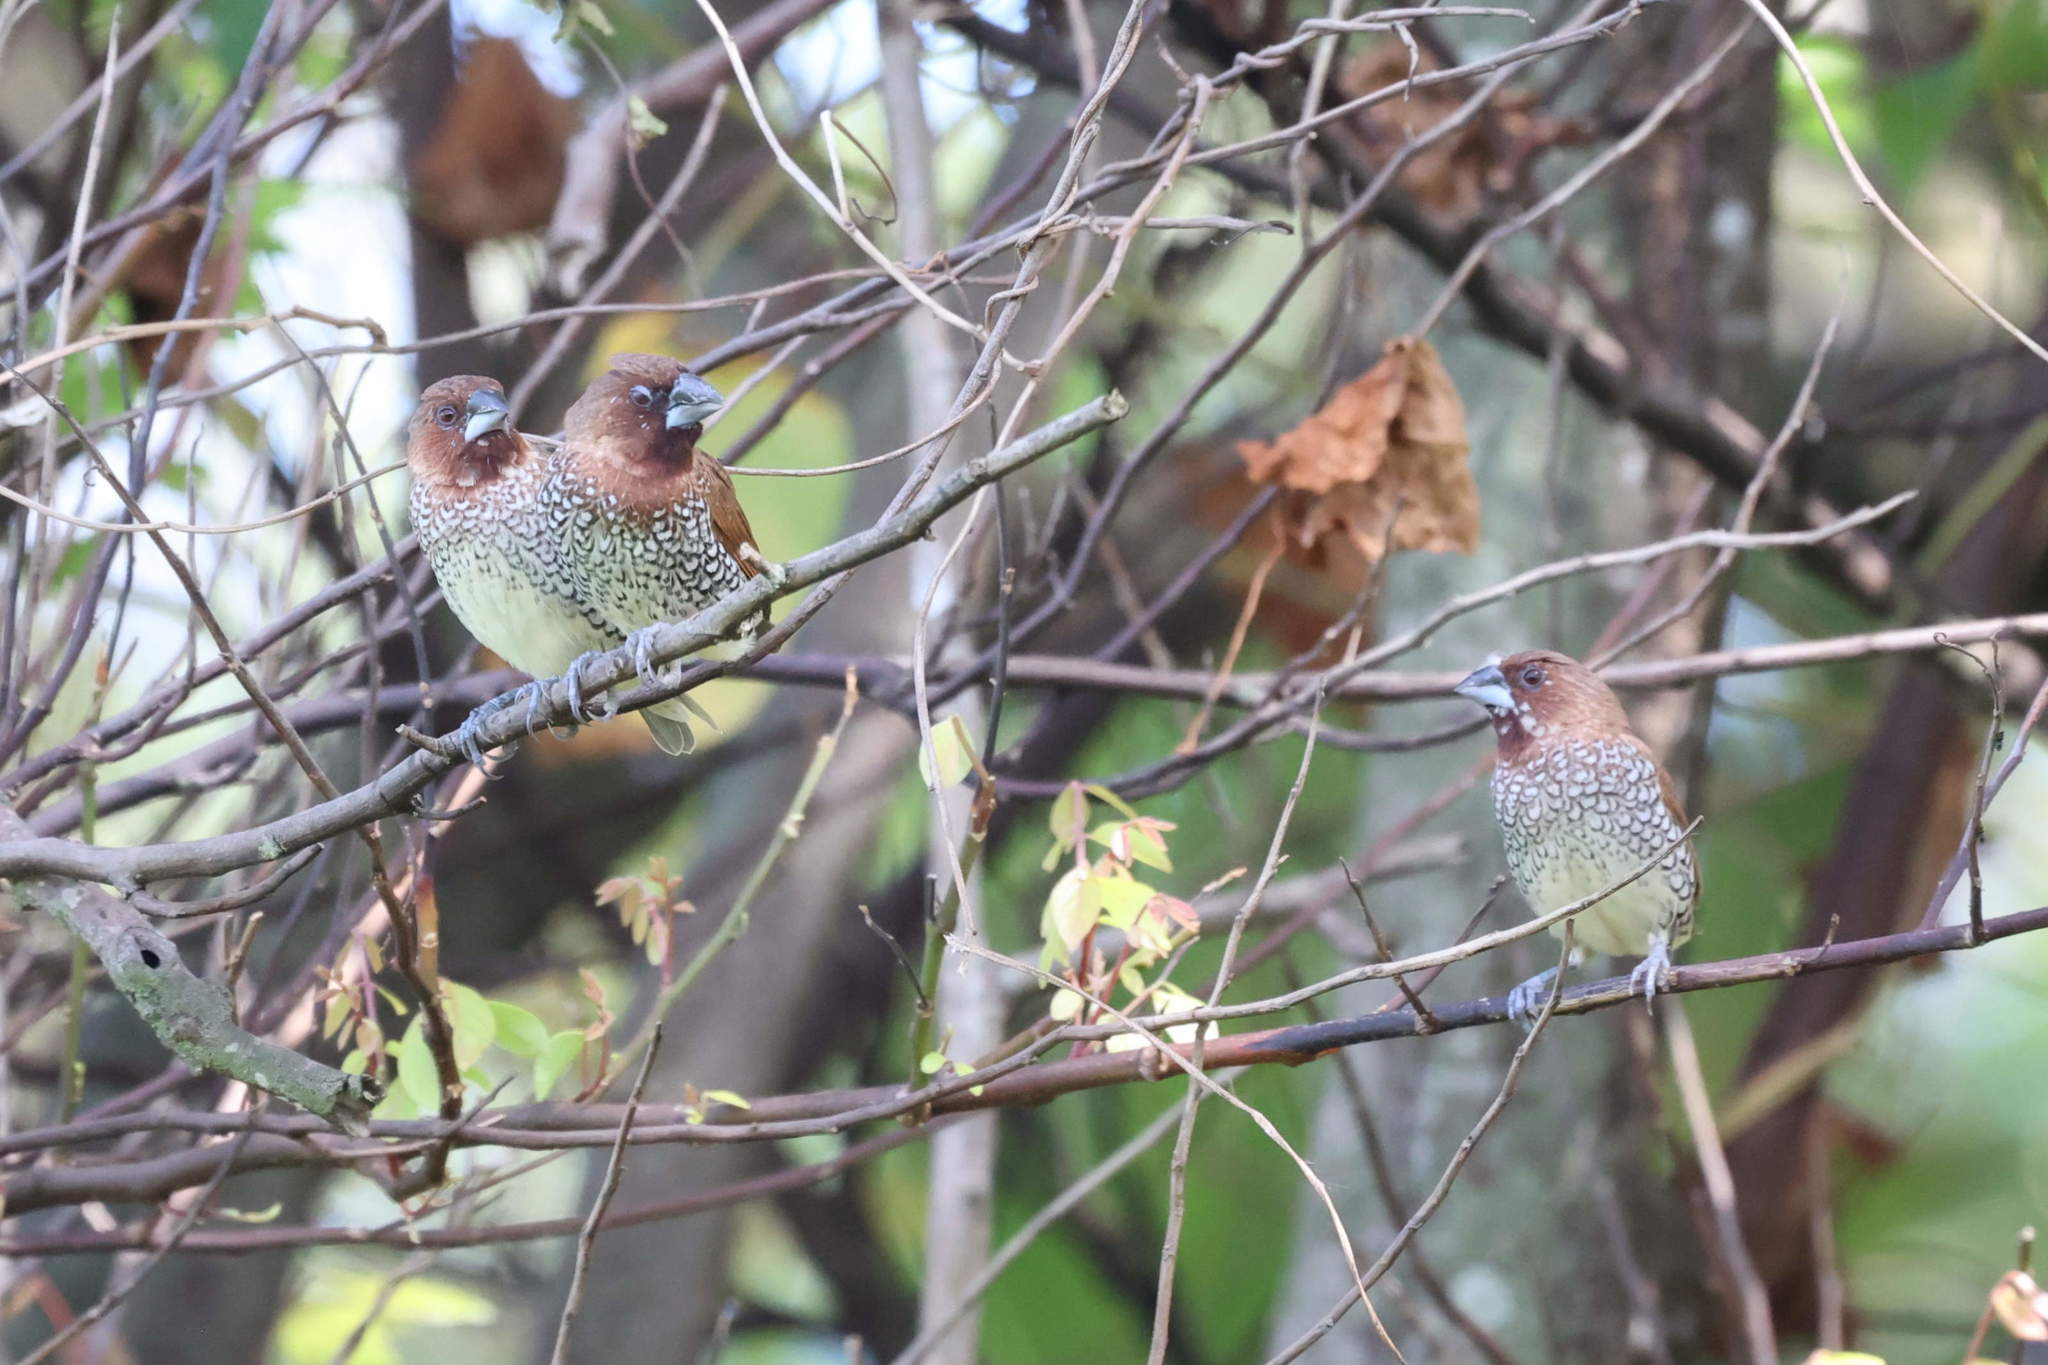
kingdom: Animalia
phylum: Chordata
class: Aves
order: Passeriformes
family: Estrildidae
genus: Lonchura
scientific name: Lonchura punctulata
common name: Scaly-breasted munia
